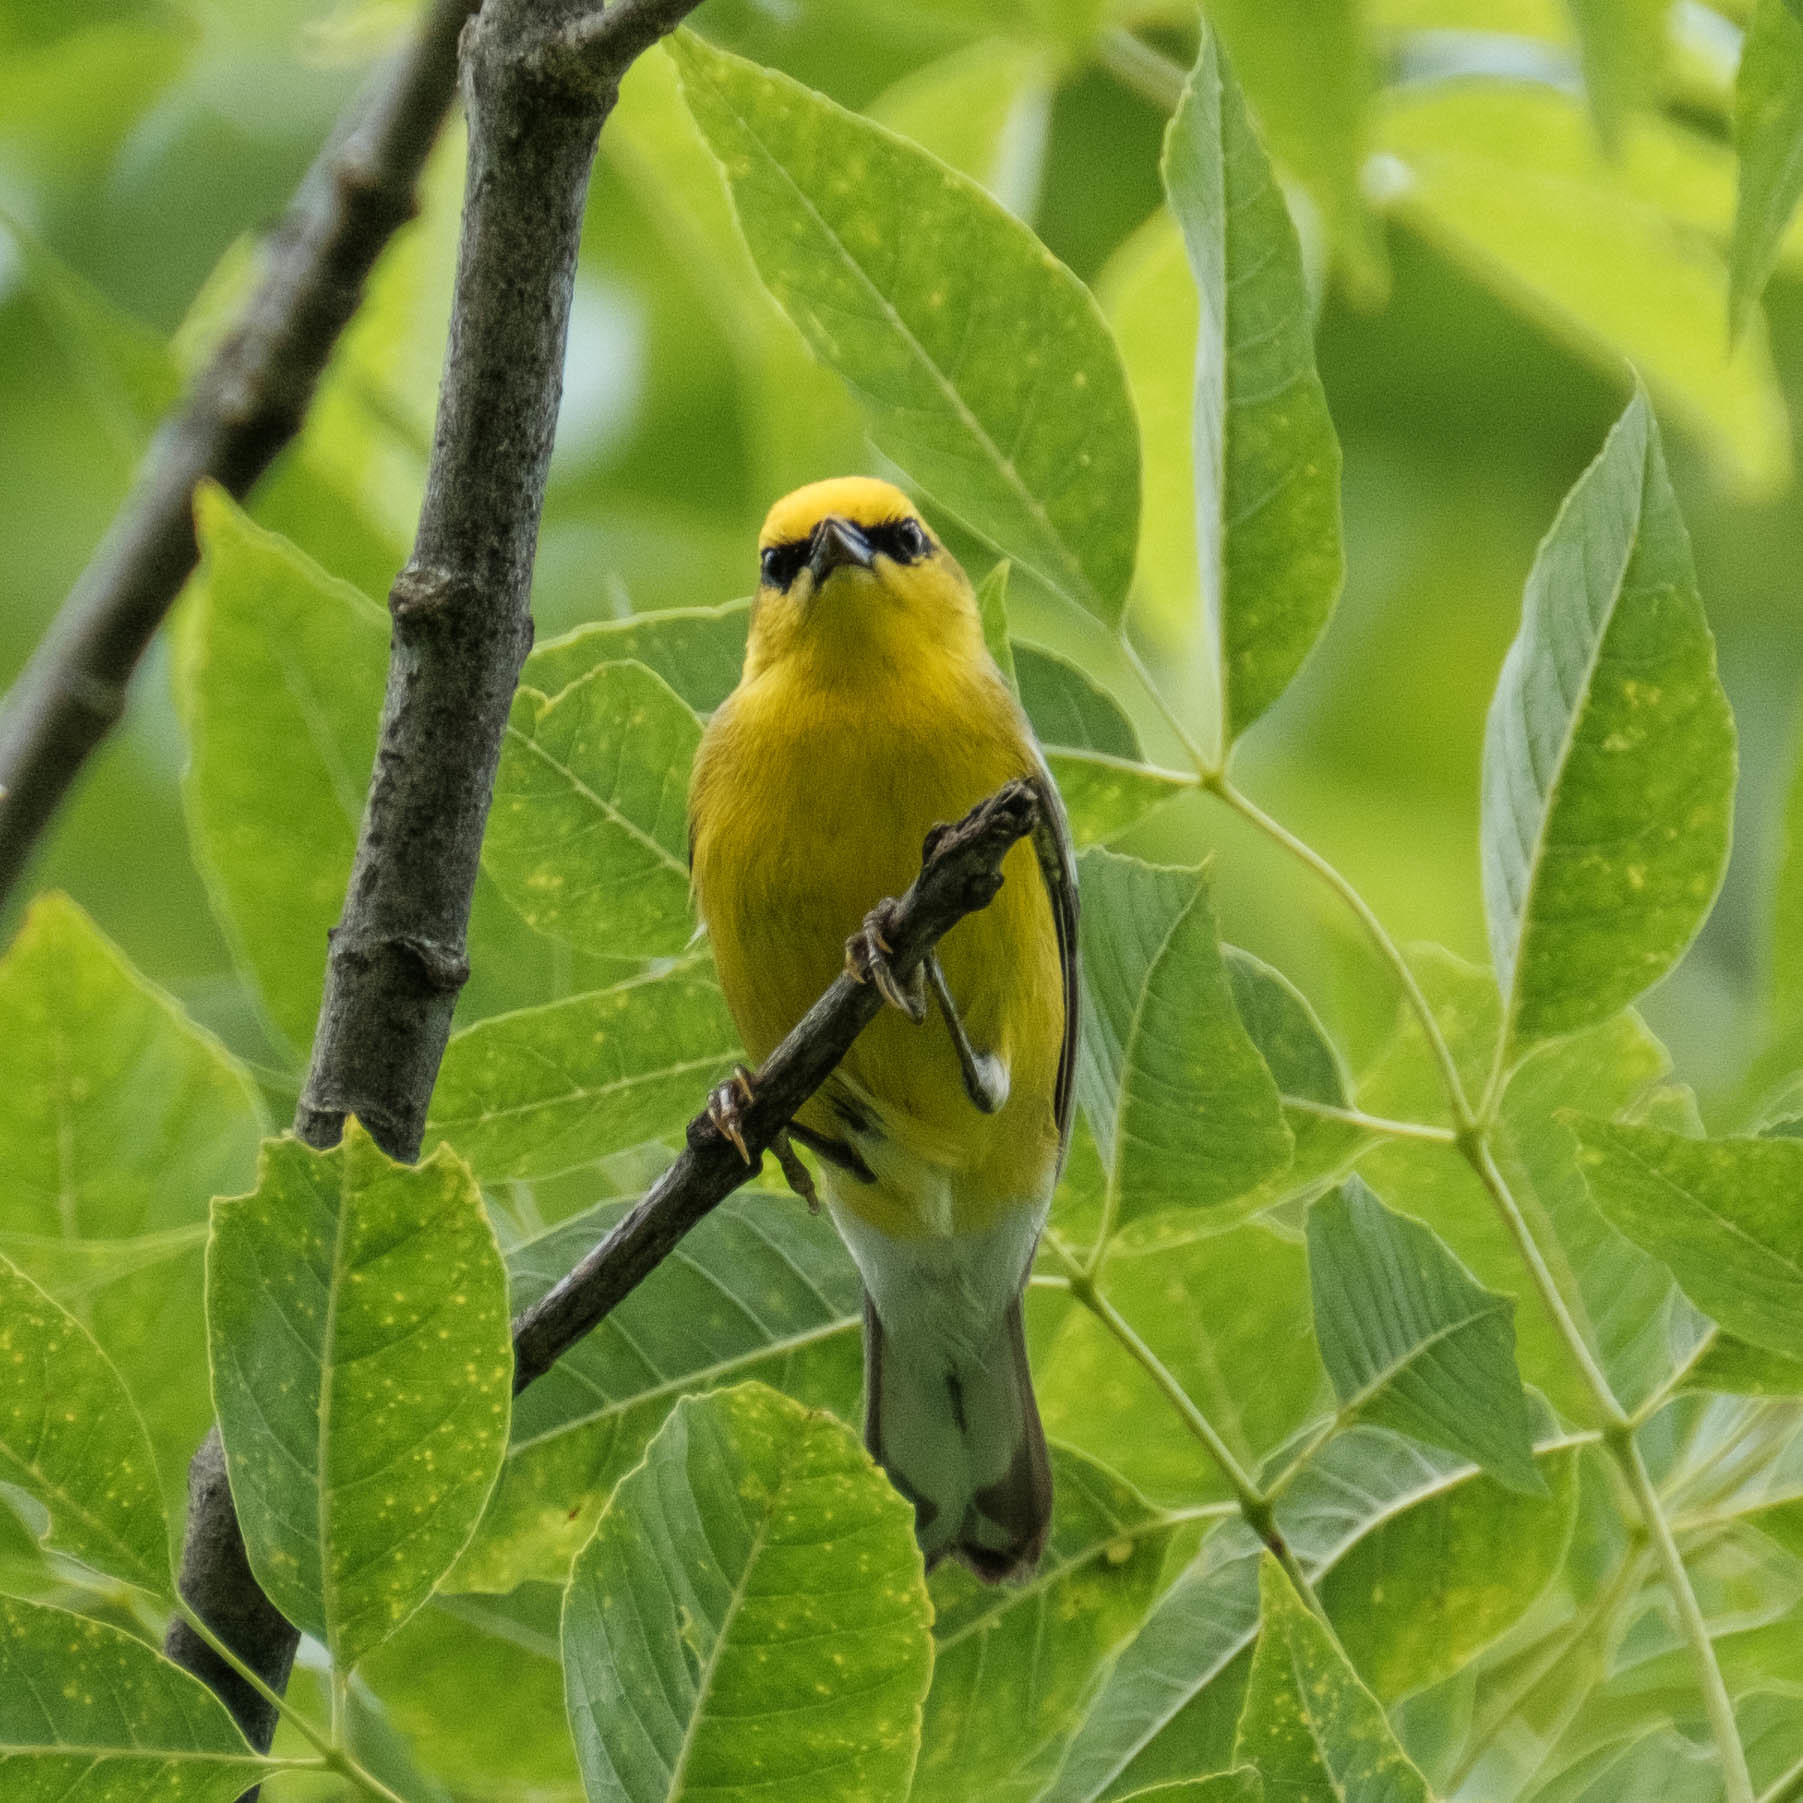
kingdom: Animalia
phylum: Chordata
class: Aves
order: Passeriformes
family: Parulidae
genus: Vermivora
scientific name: Vermivora cyanoptera
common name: Blue-winged warbler
